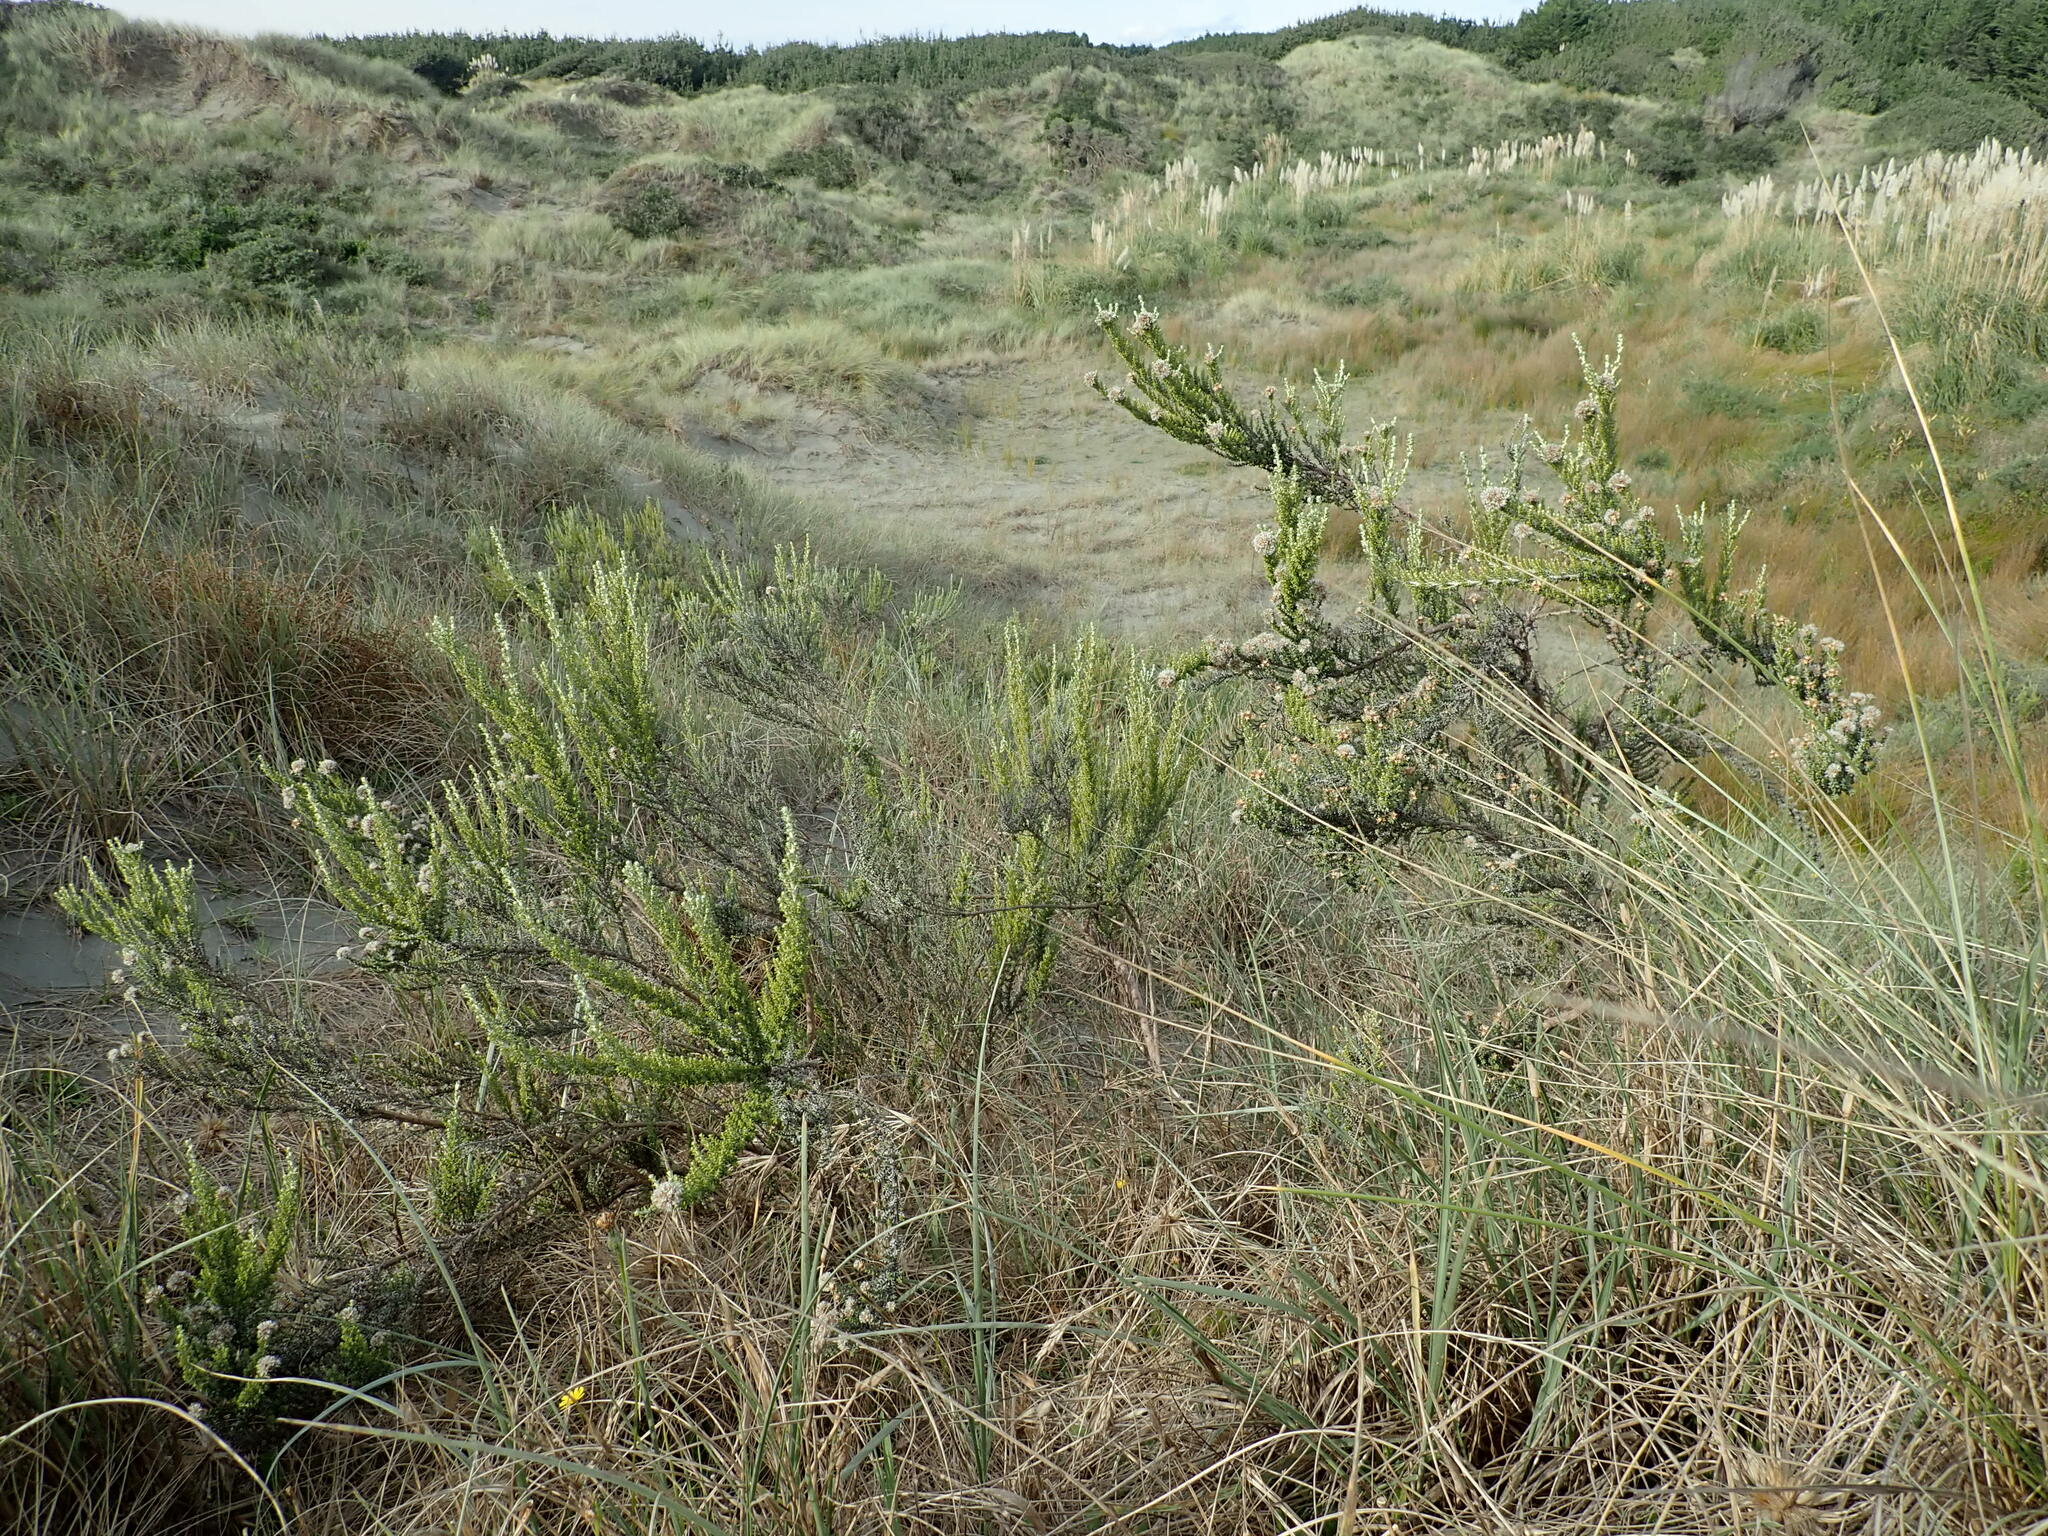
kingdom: Plantae
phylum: Tracheophyta
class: Magnoliopsida
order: Asterales
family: Asteraceae
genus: Ozothamnus
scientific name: Ozothamnus leptophyllus
